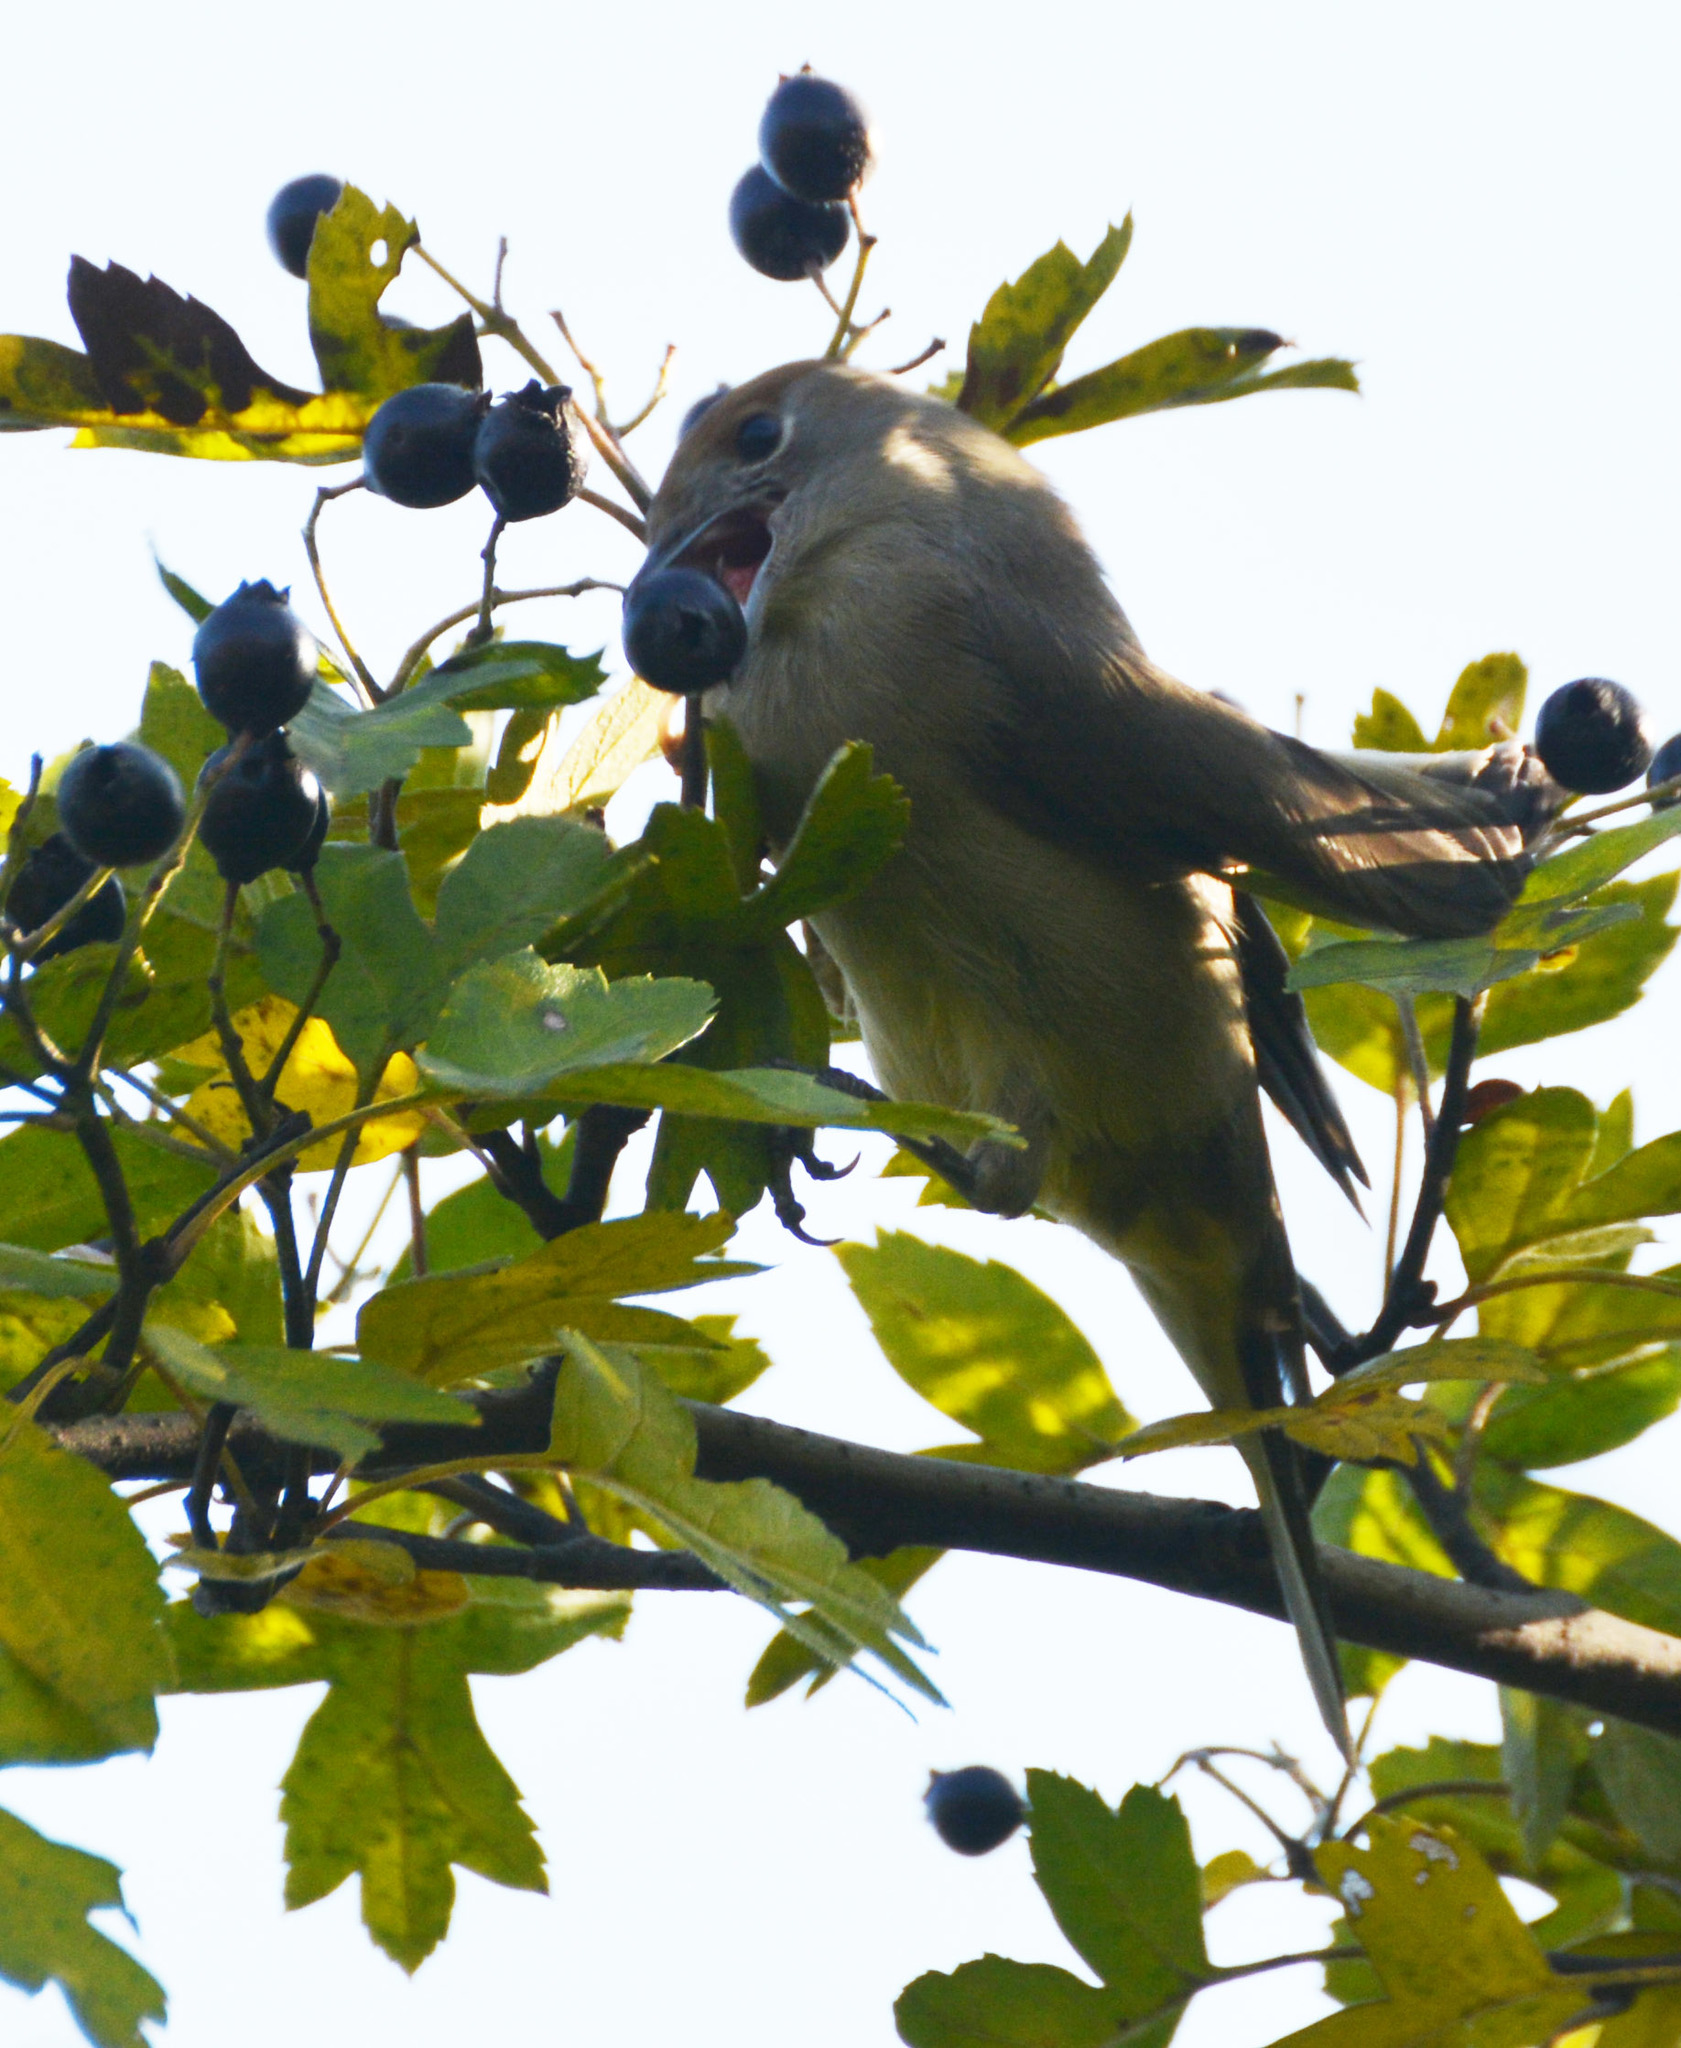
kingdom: Animalia
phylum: Chordata
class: Aves
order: Passeriformes
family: Sylviidae
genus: Sylvia
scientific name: Sylvia atricapilla
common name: Eurasian blackcap
